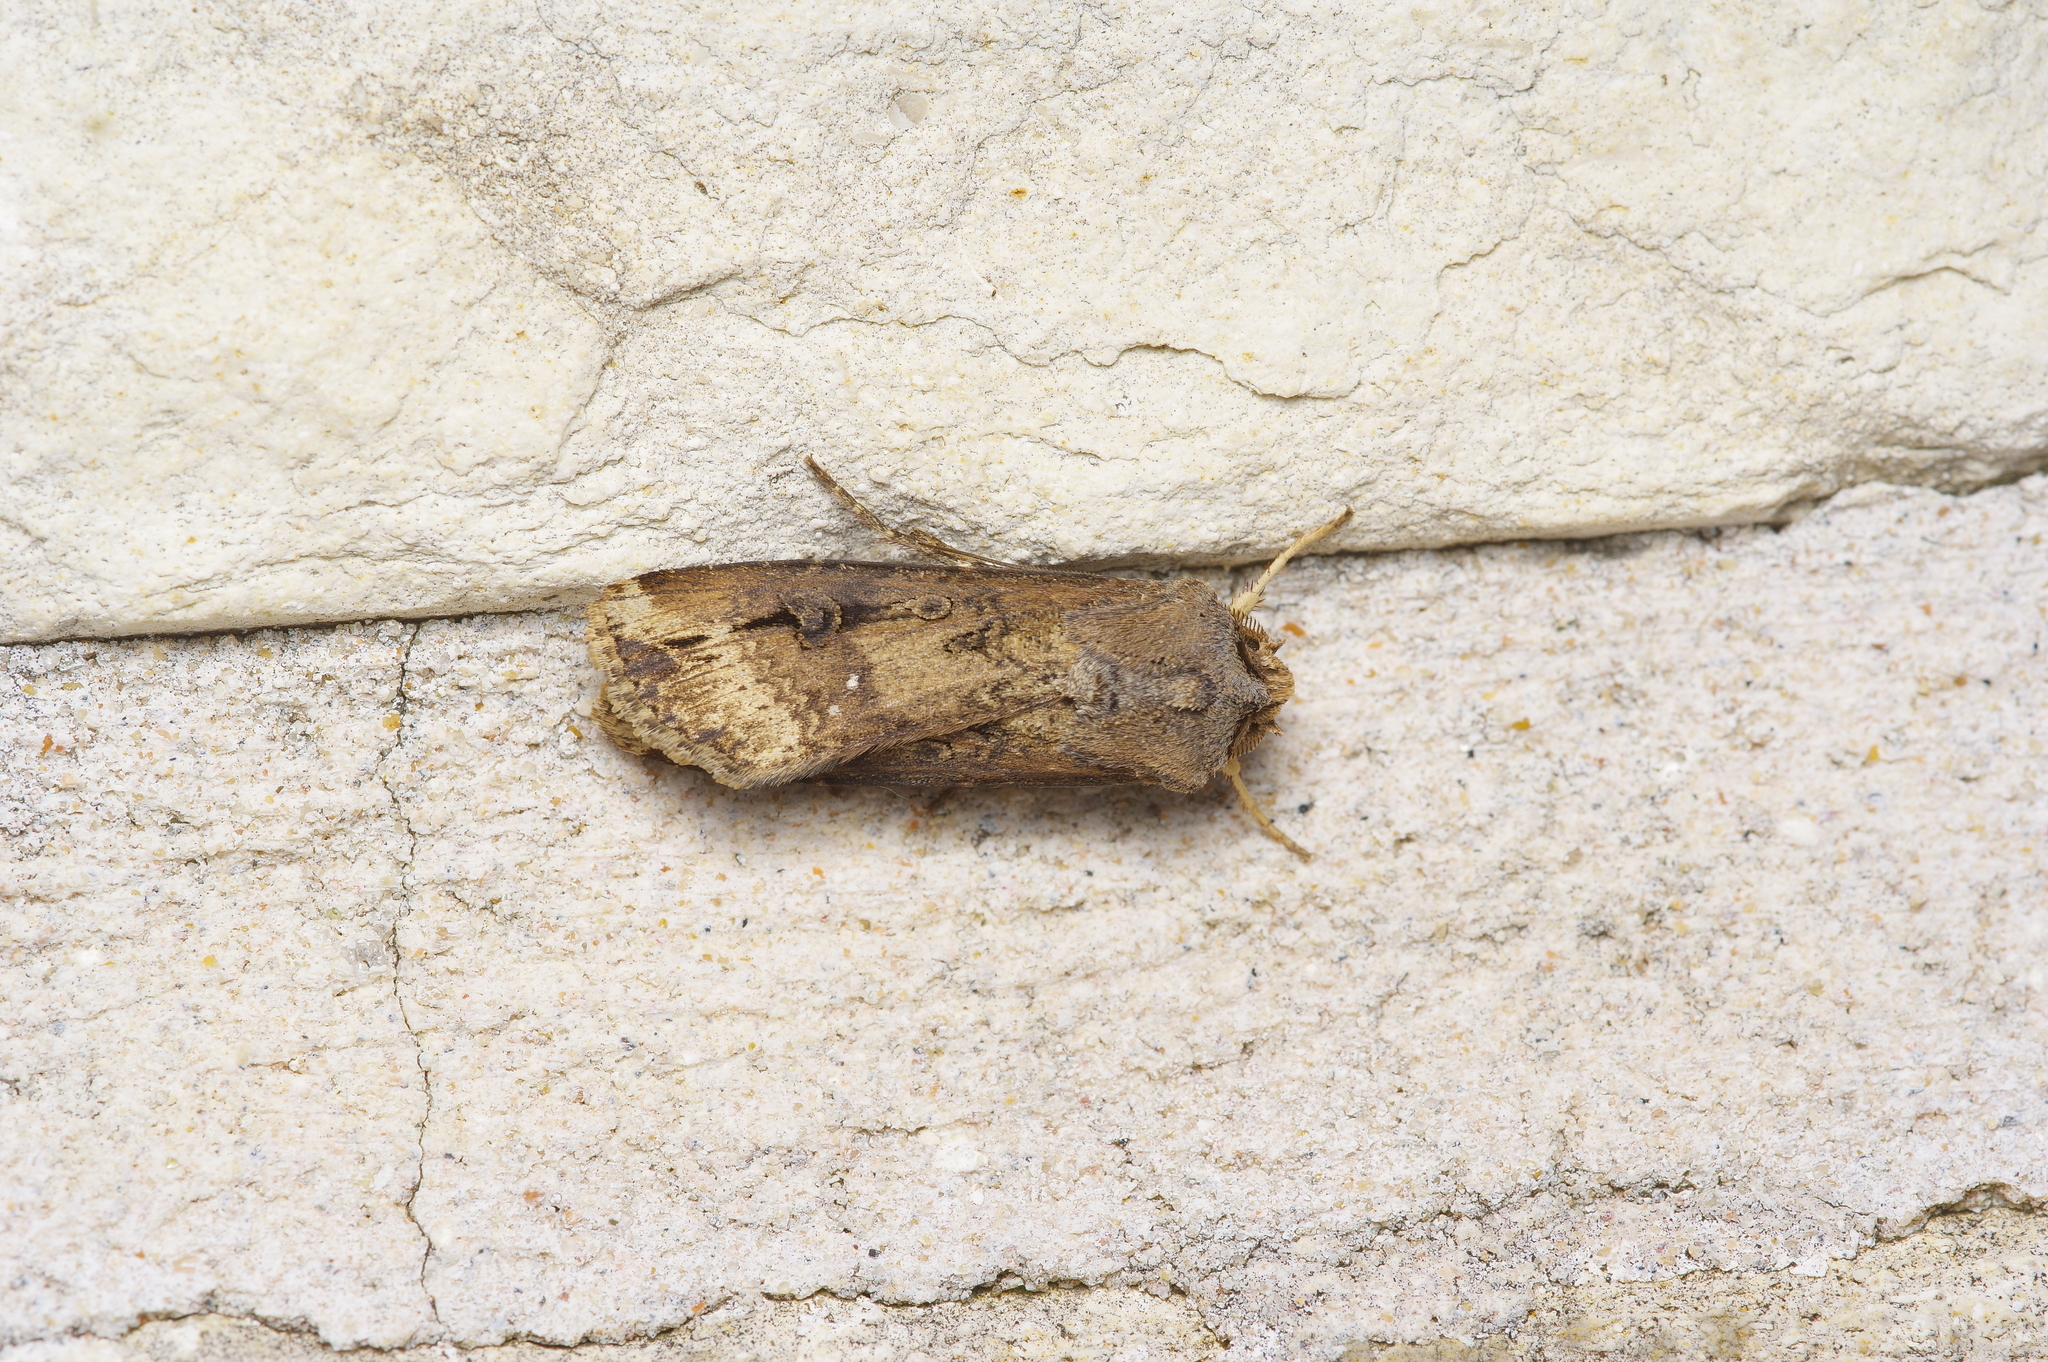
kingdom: Animalia
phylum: Arthropoda
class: Insecta
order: Lepidoptera
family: Noctuidae
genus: Agrotis
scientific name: Agrotis ipsilon
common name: Dark sword-grass
